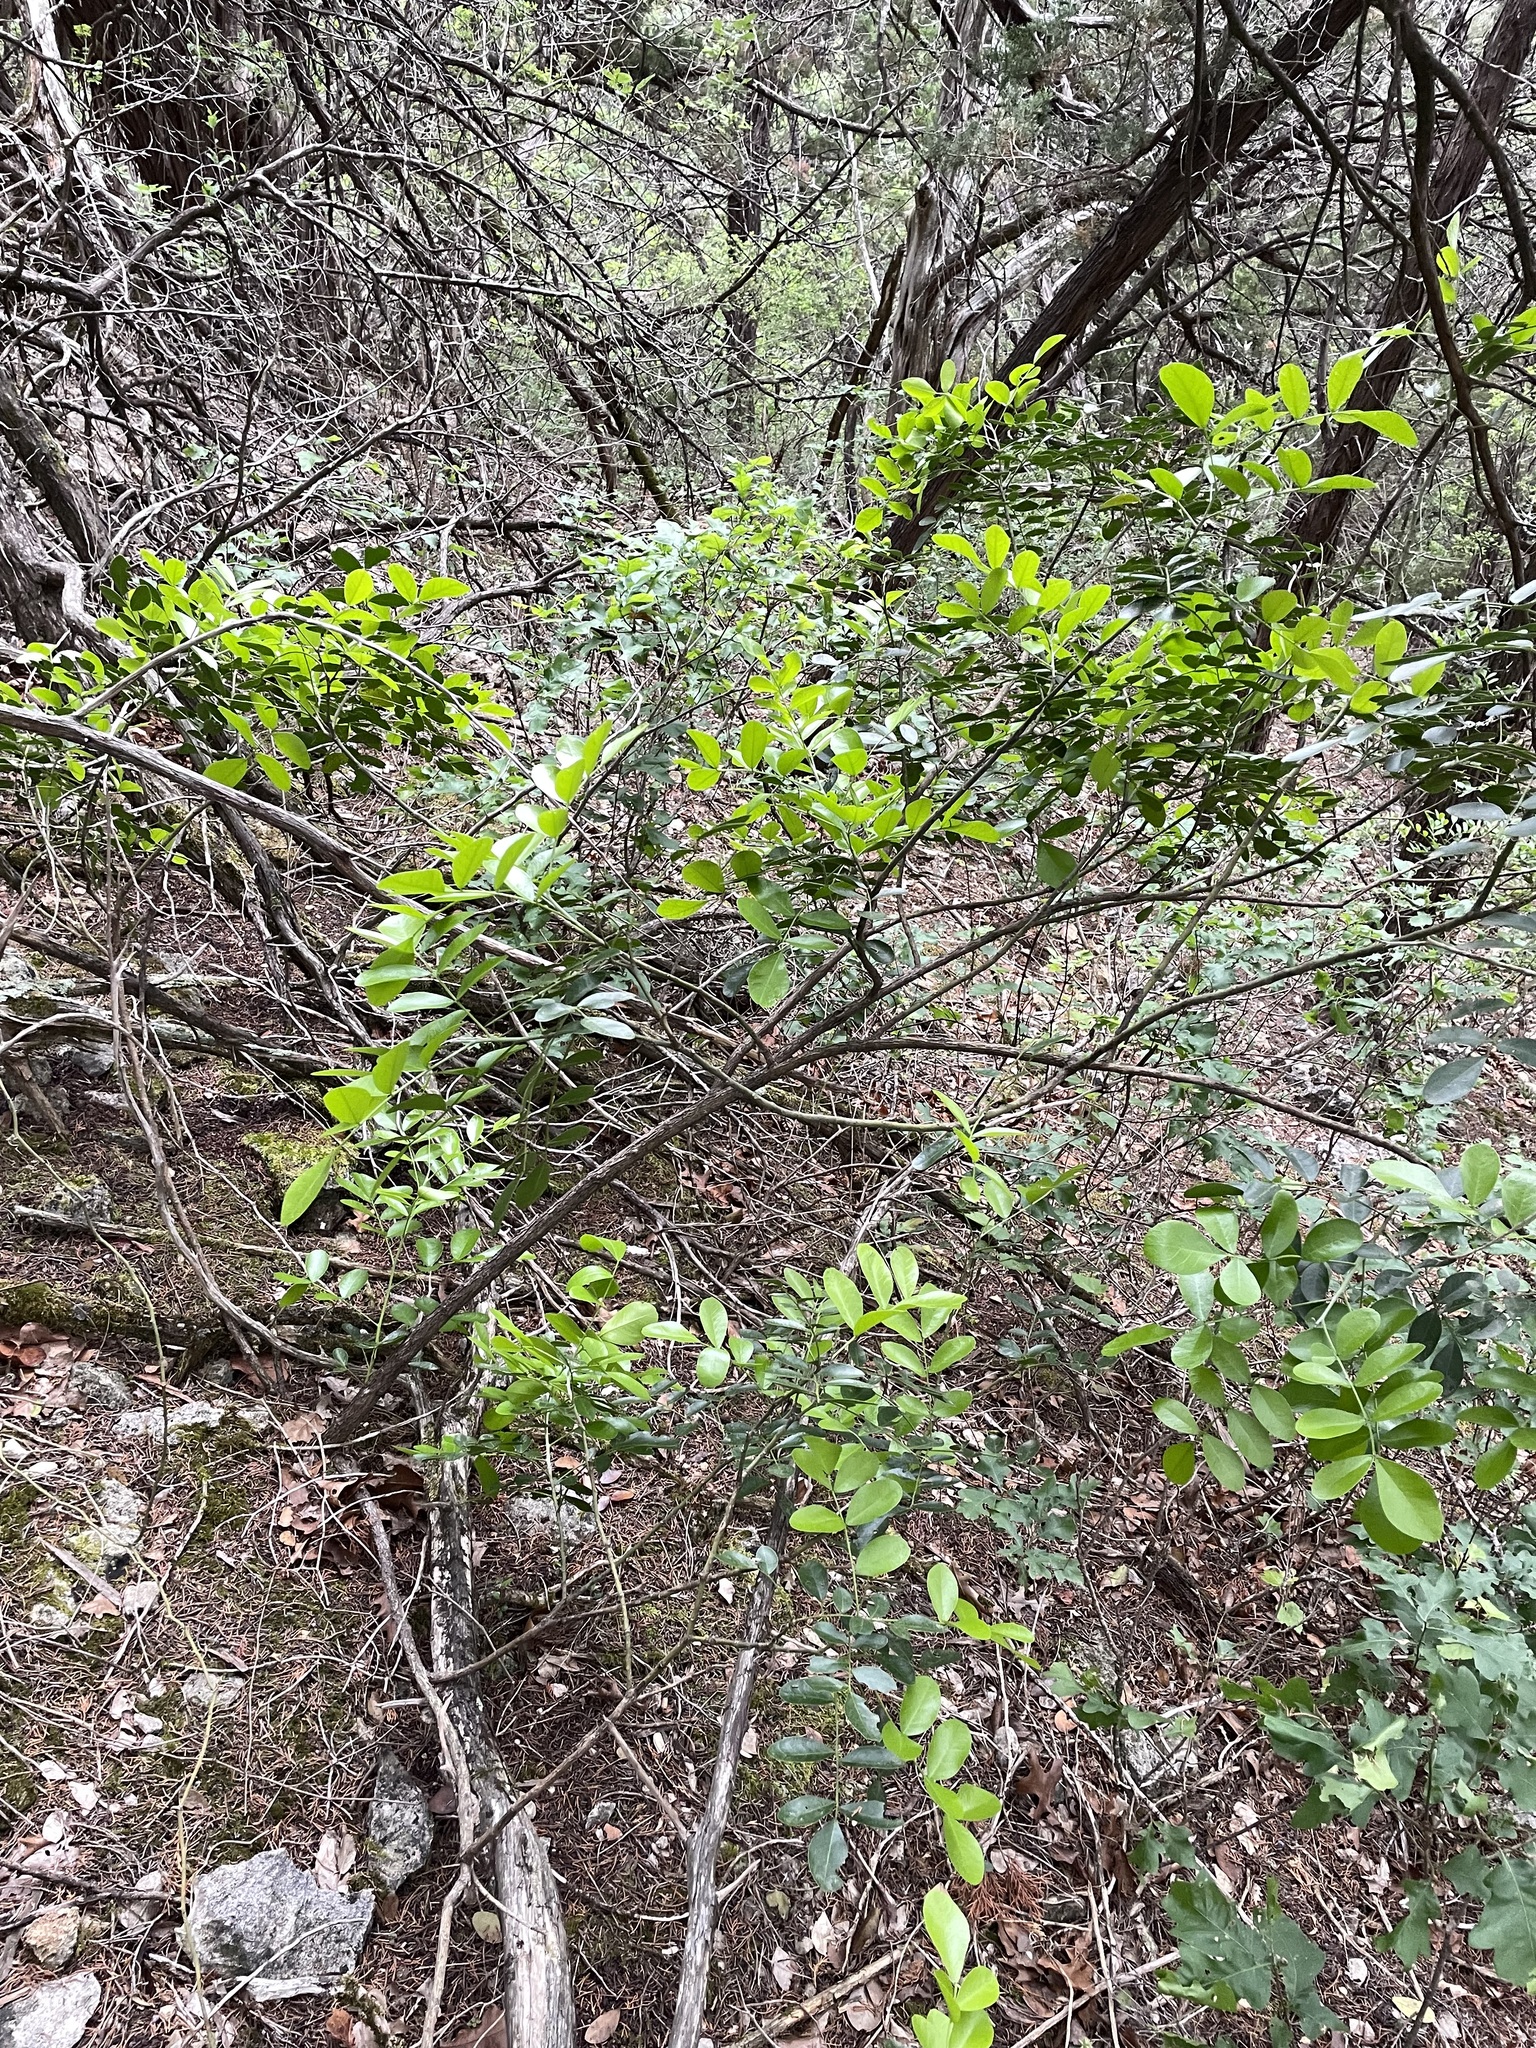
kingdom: Plantae
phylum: Tracheophyta
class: Magnoliopsida
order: Fabales
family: Fabaceae
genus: Dermatophyllum
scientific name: Dermatophyllum secundiflorum
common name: Texas-mountain-laurel
